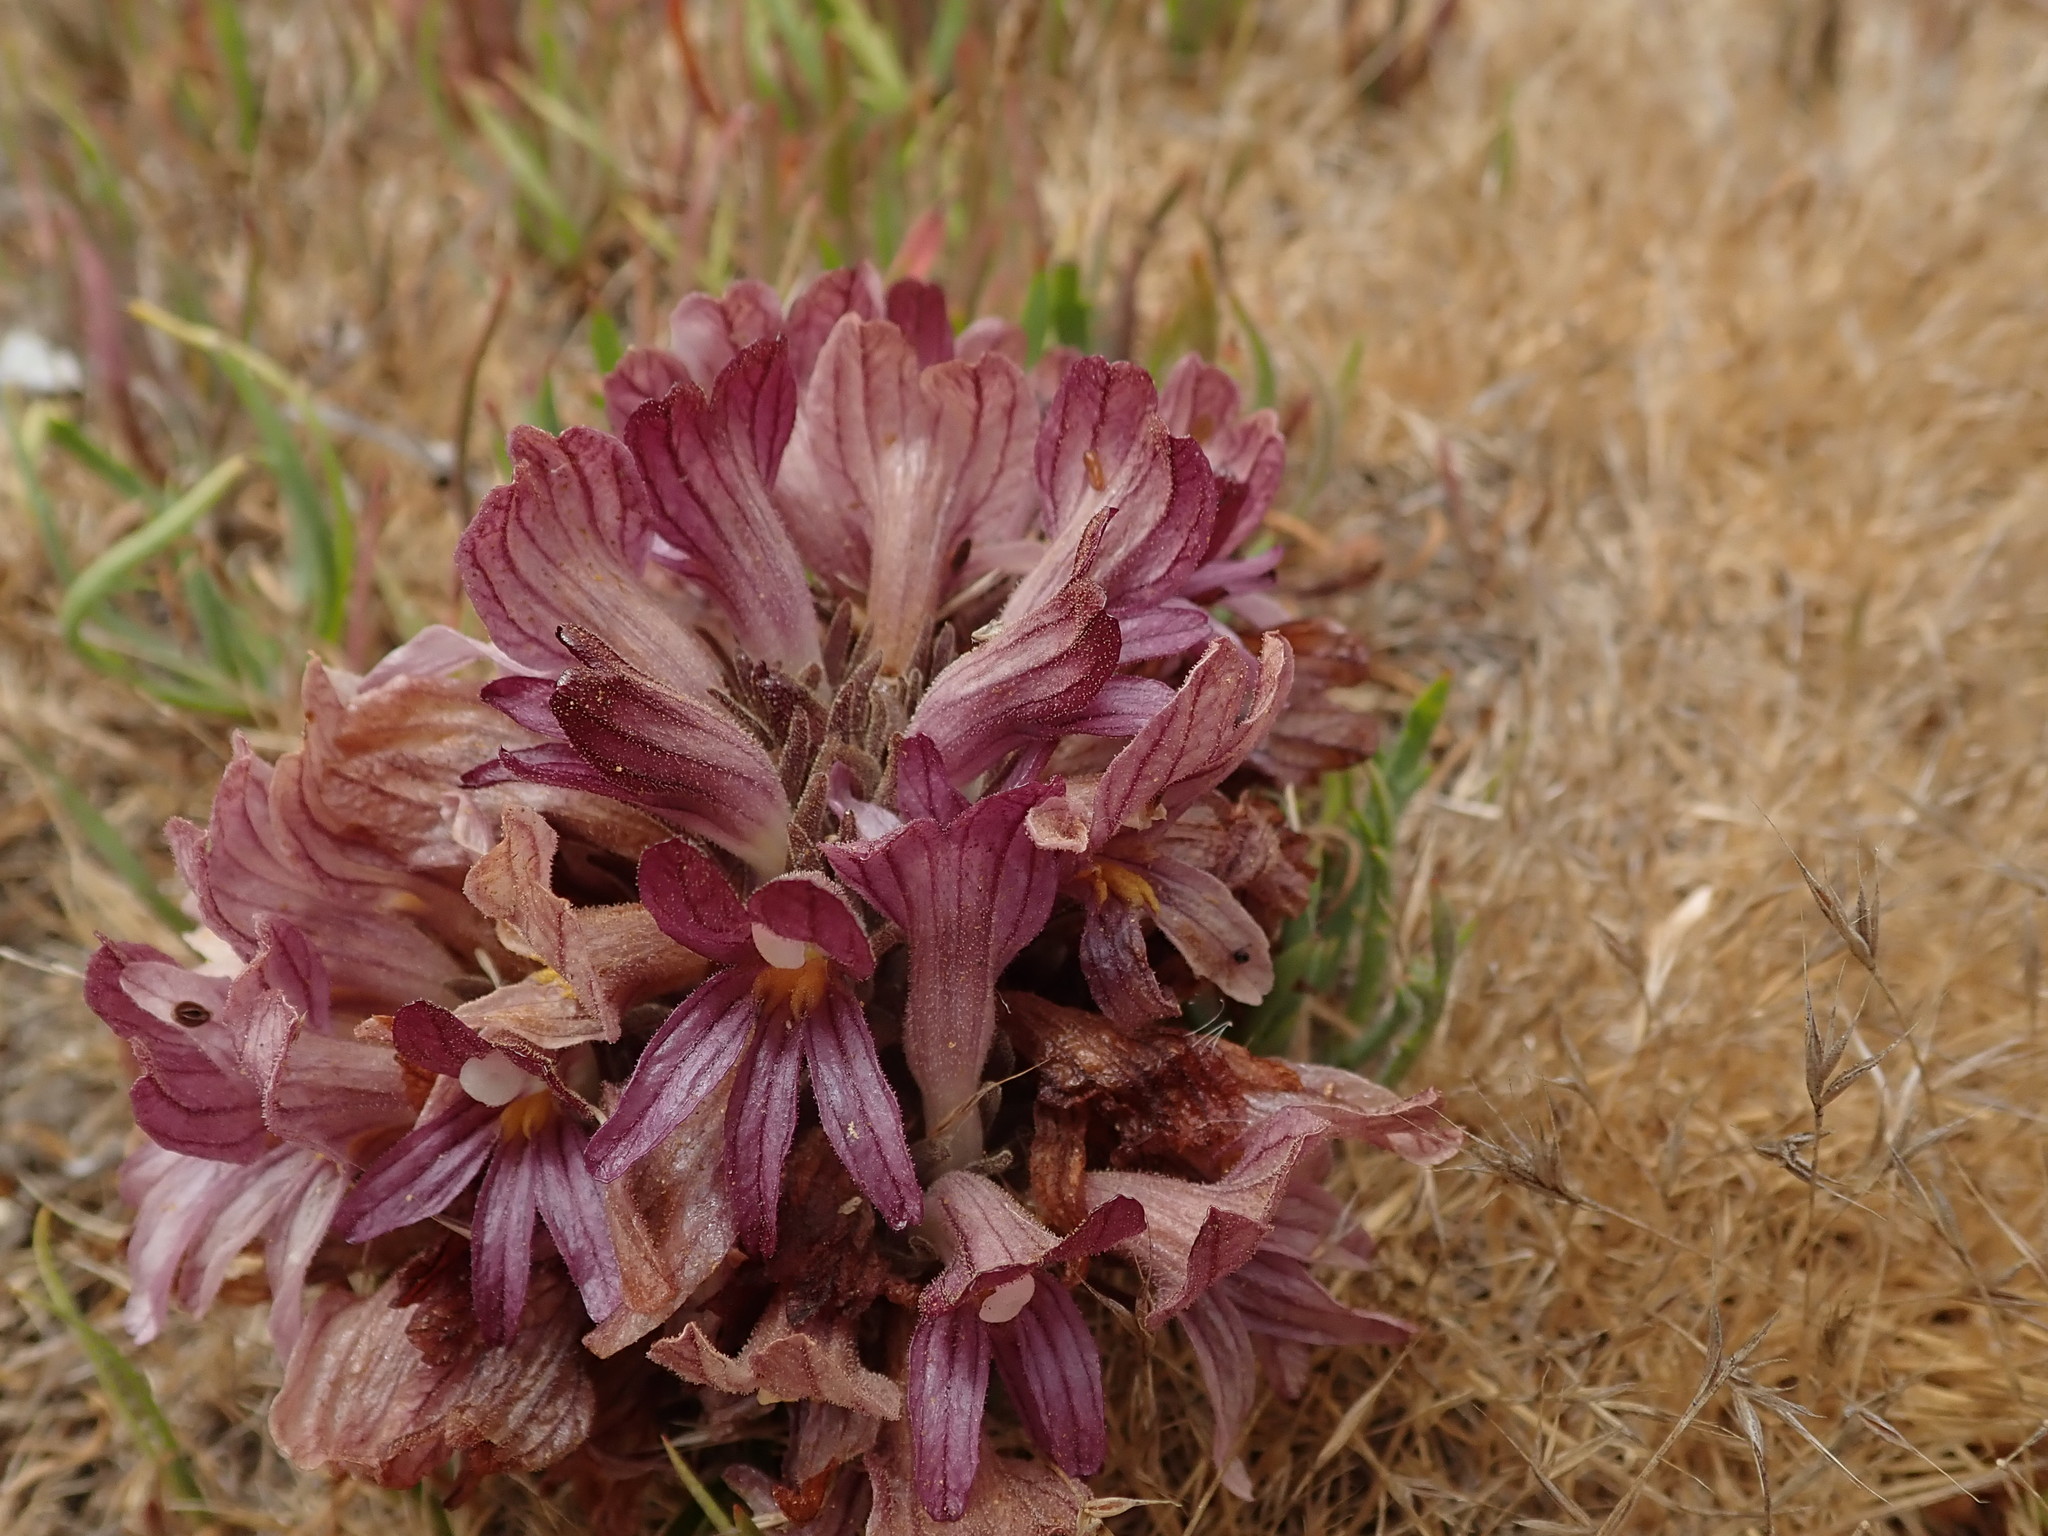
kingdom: Plantae
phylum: Tracheophyta
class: Magnoliopsida
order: Lamiales
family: Orobanchaceae
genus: Aphyllon
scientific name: Aphyllon californicum
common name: California broomrape
